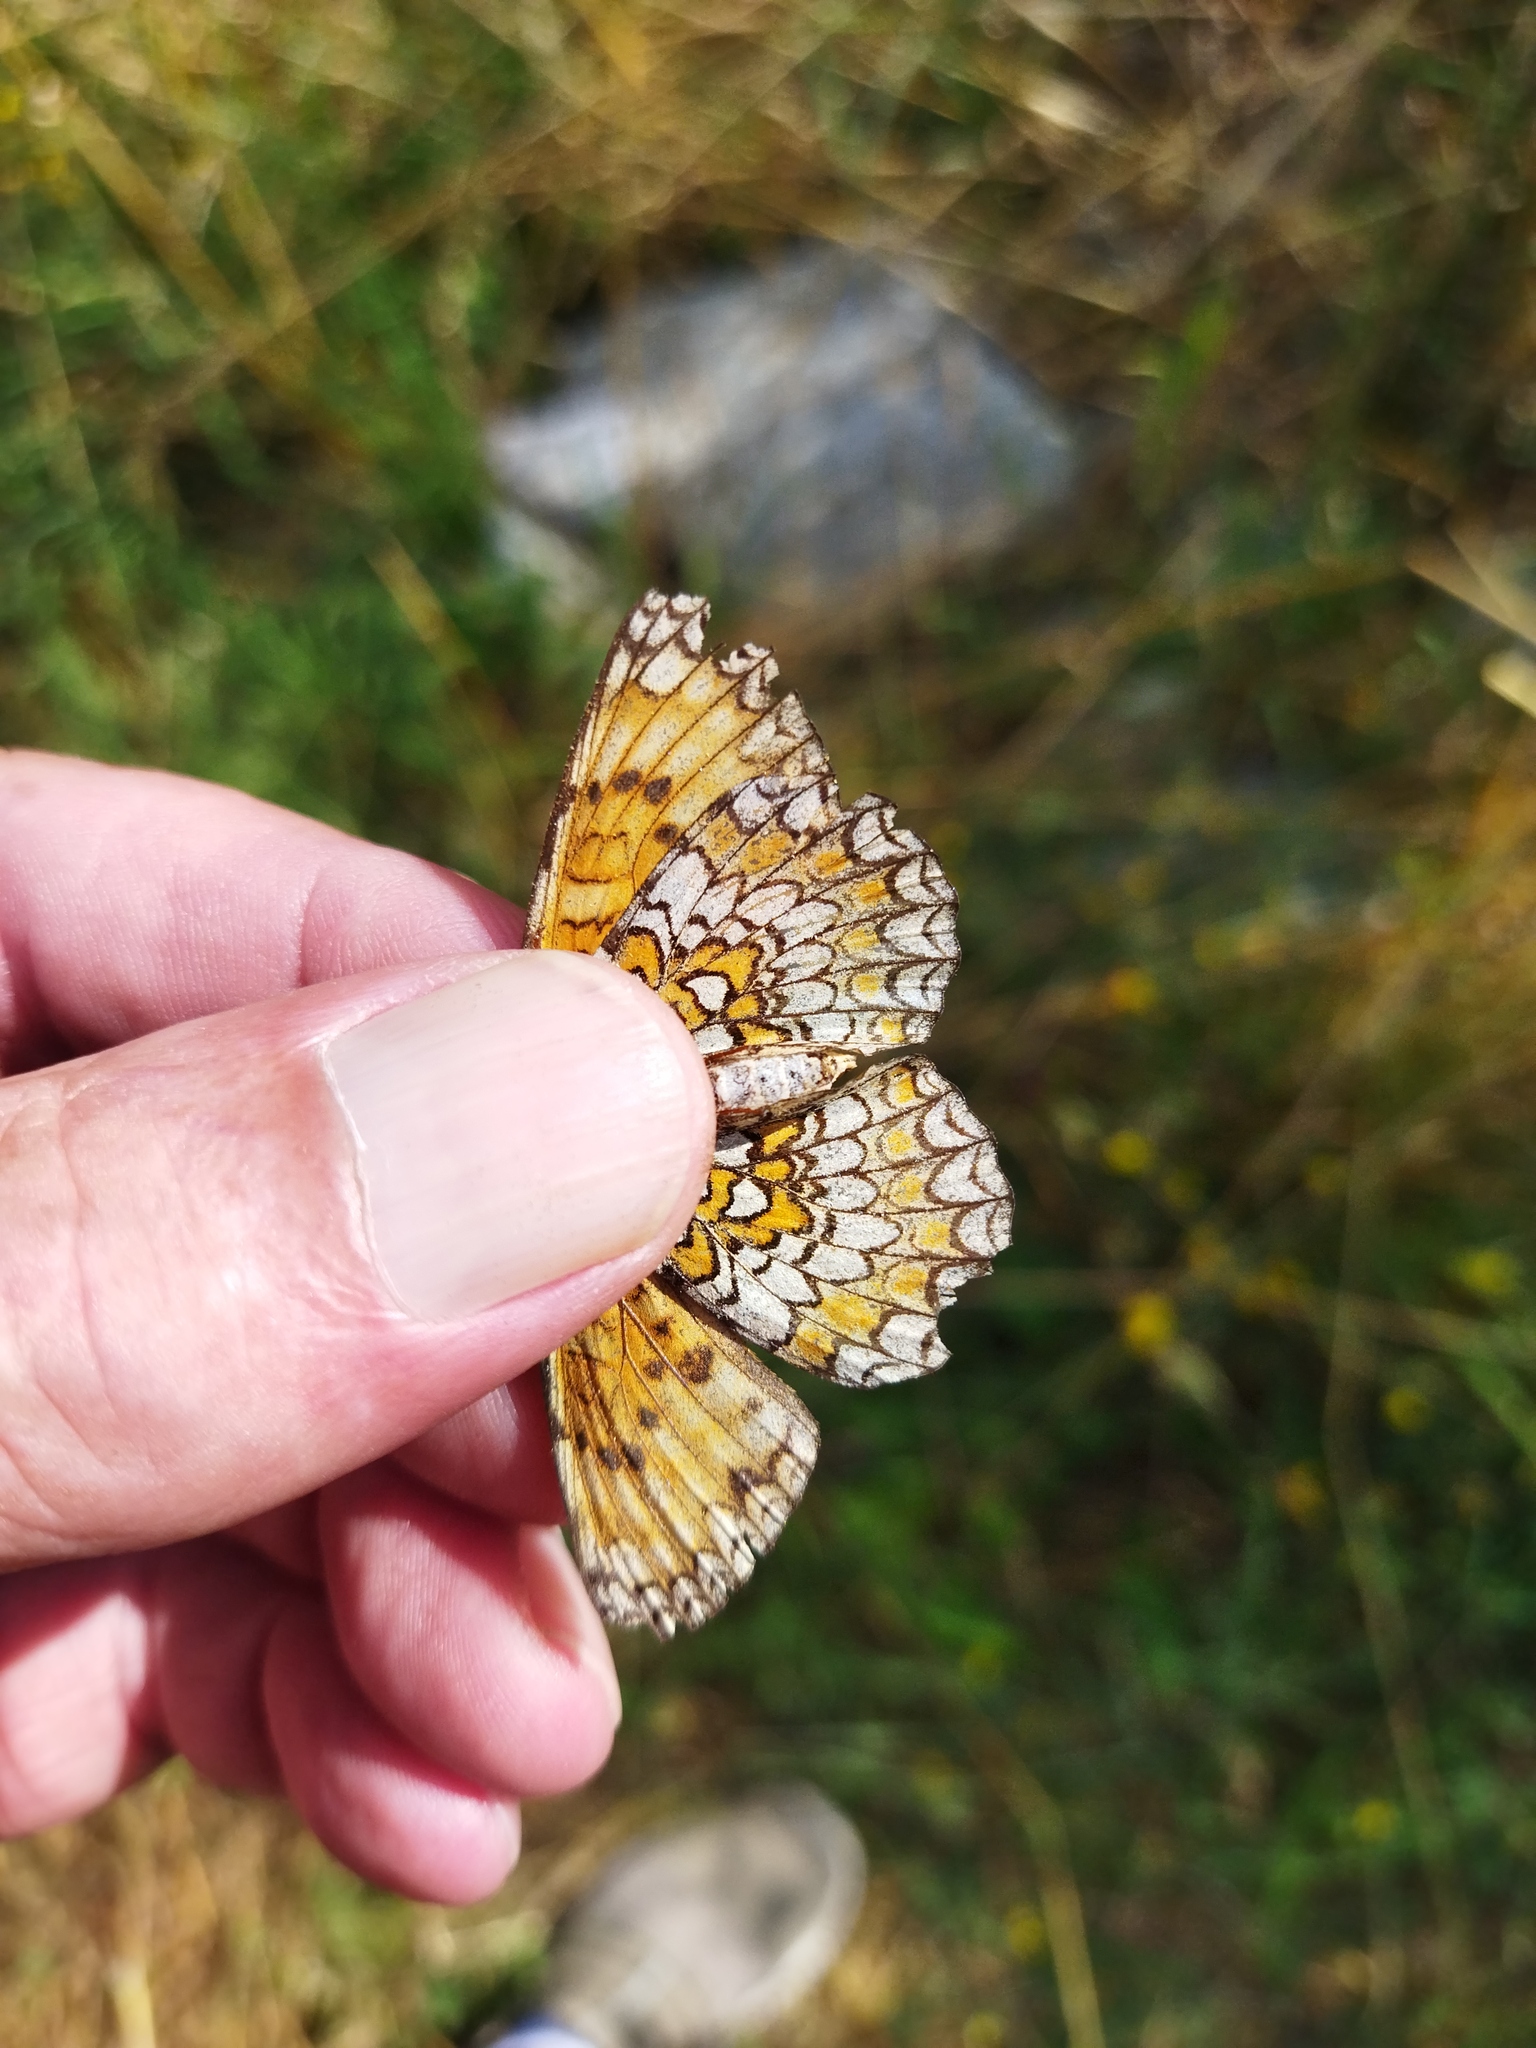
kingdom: Animalia
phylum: Arthropoda
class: Insecta
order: Lepidoptera
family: Nymphalidae
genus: Melitaea
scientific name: Melitaea phoebe
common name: Knapweed fritillary
